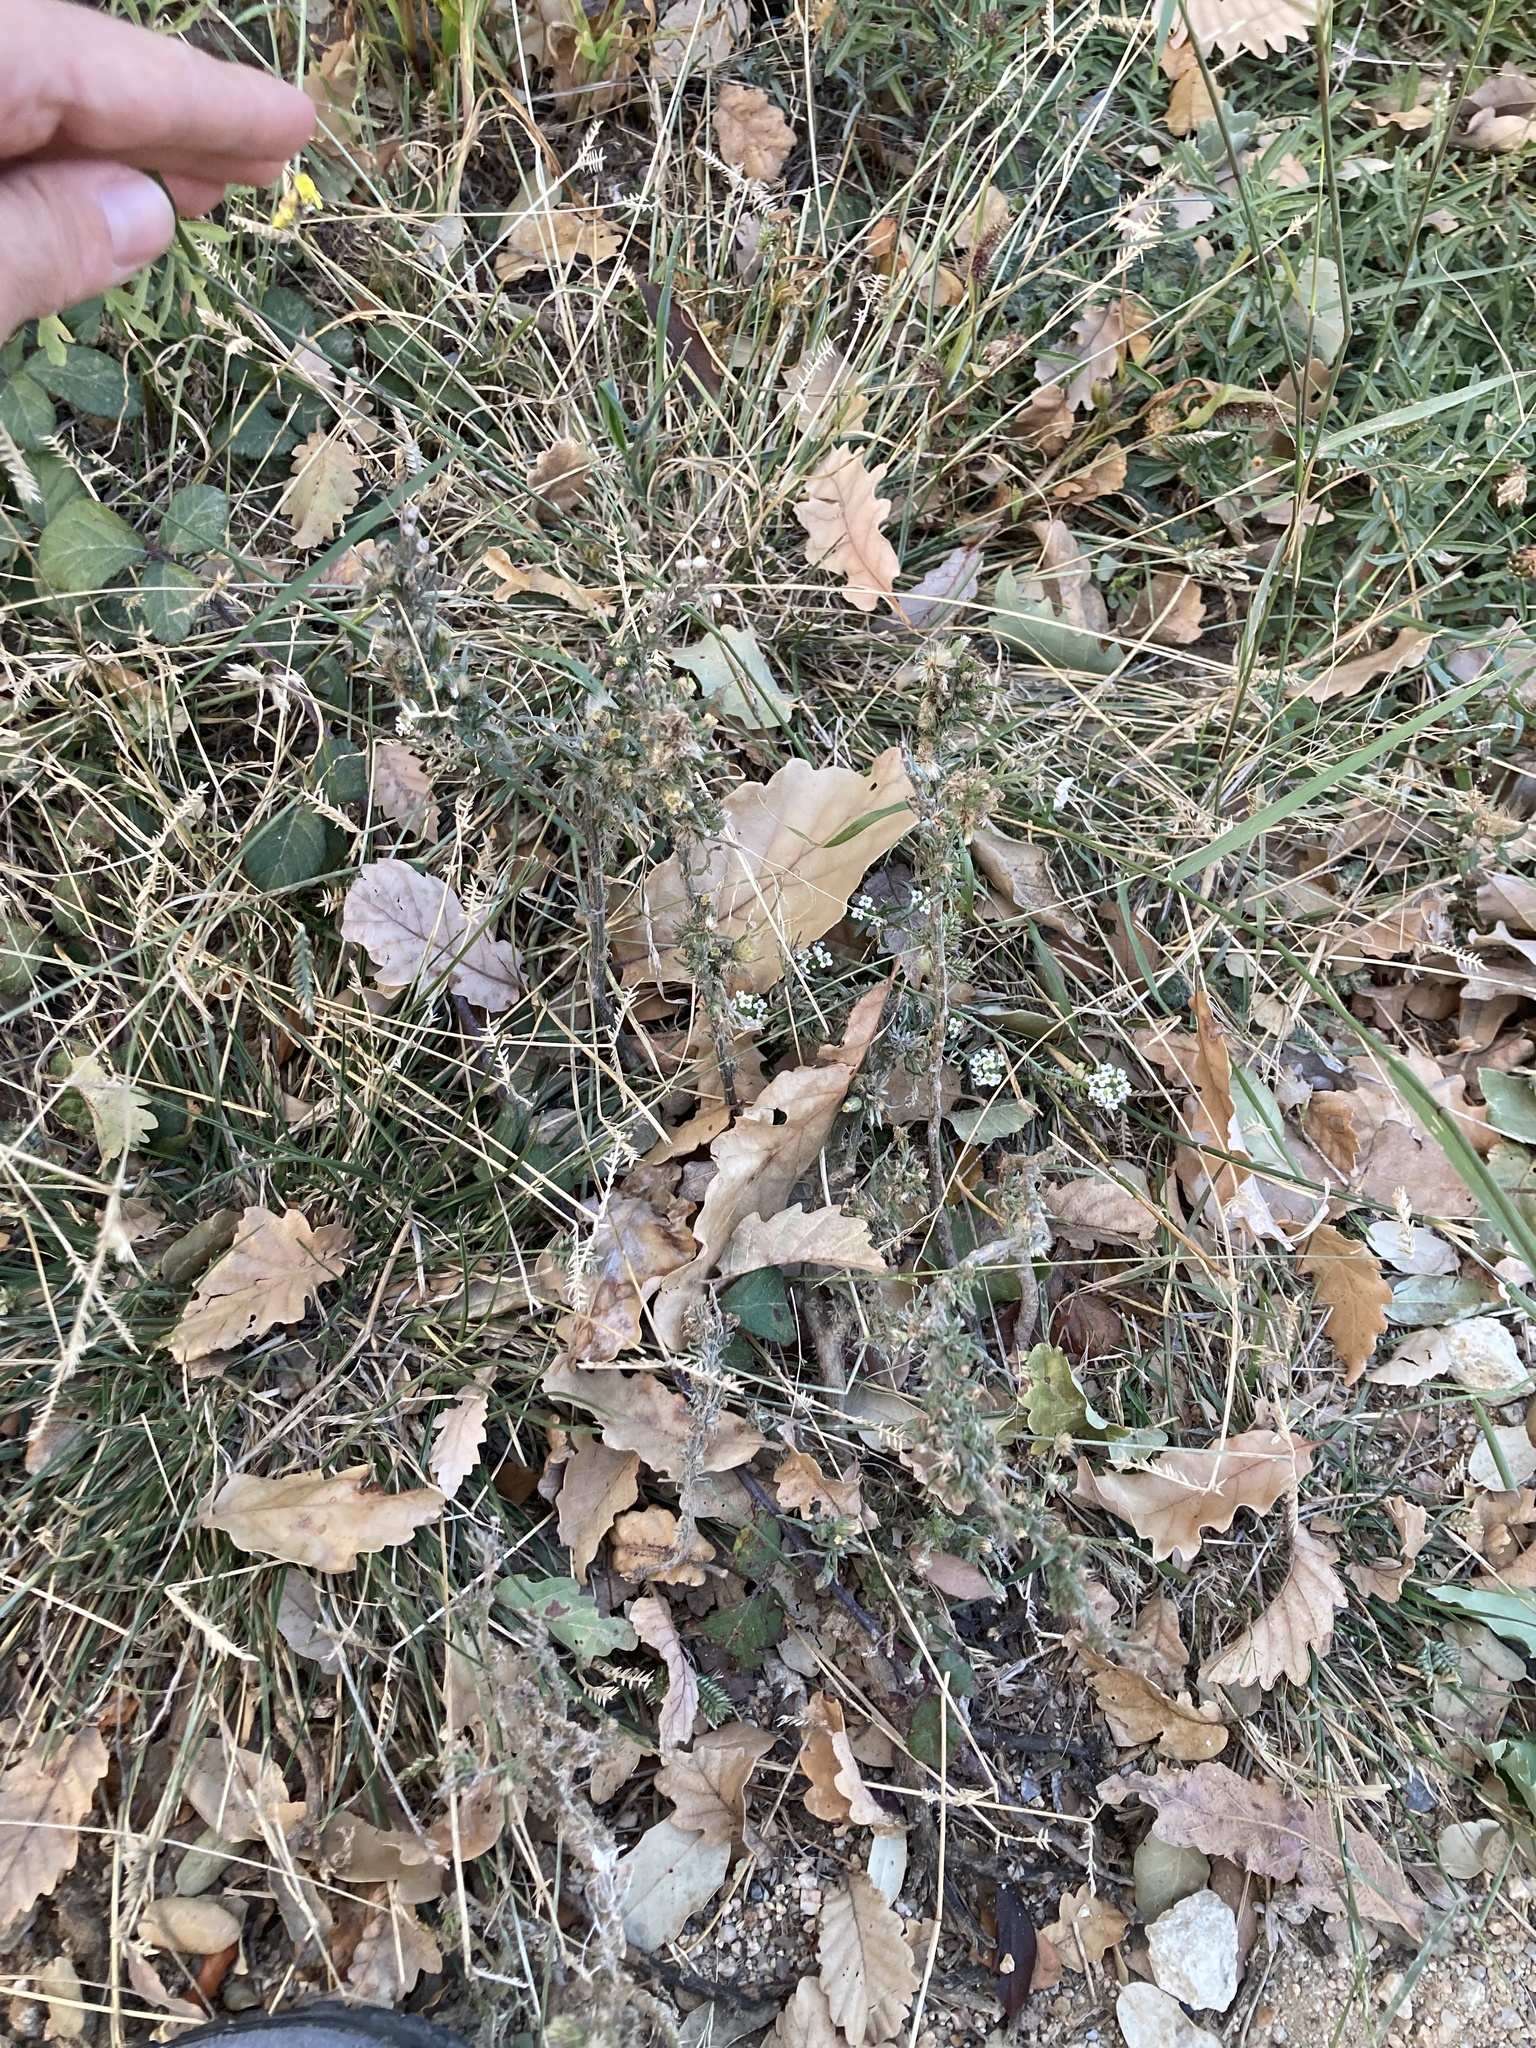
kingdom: Plantae
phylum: Tracheophyta
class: Magnoliopsida
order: Asterales
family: Asteraceae
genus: Erigeron
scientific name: Erigeron bonariensis
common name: Argentine fleabane
